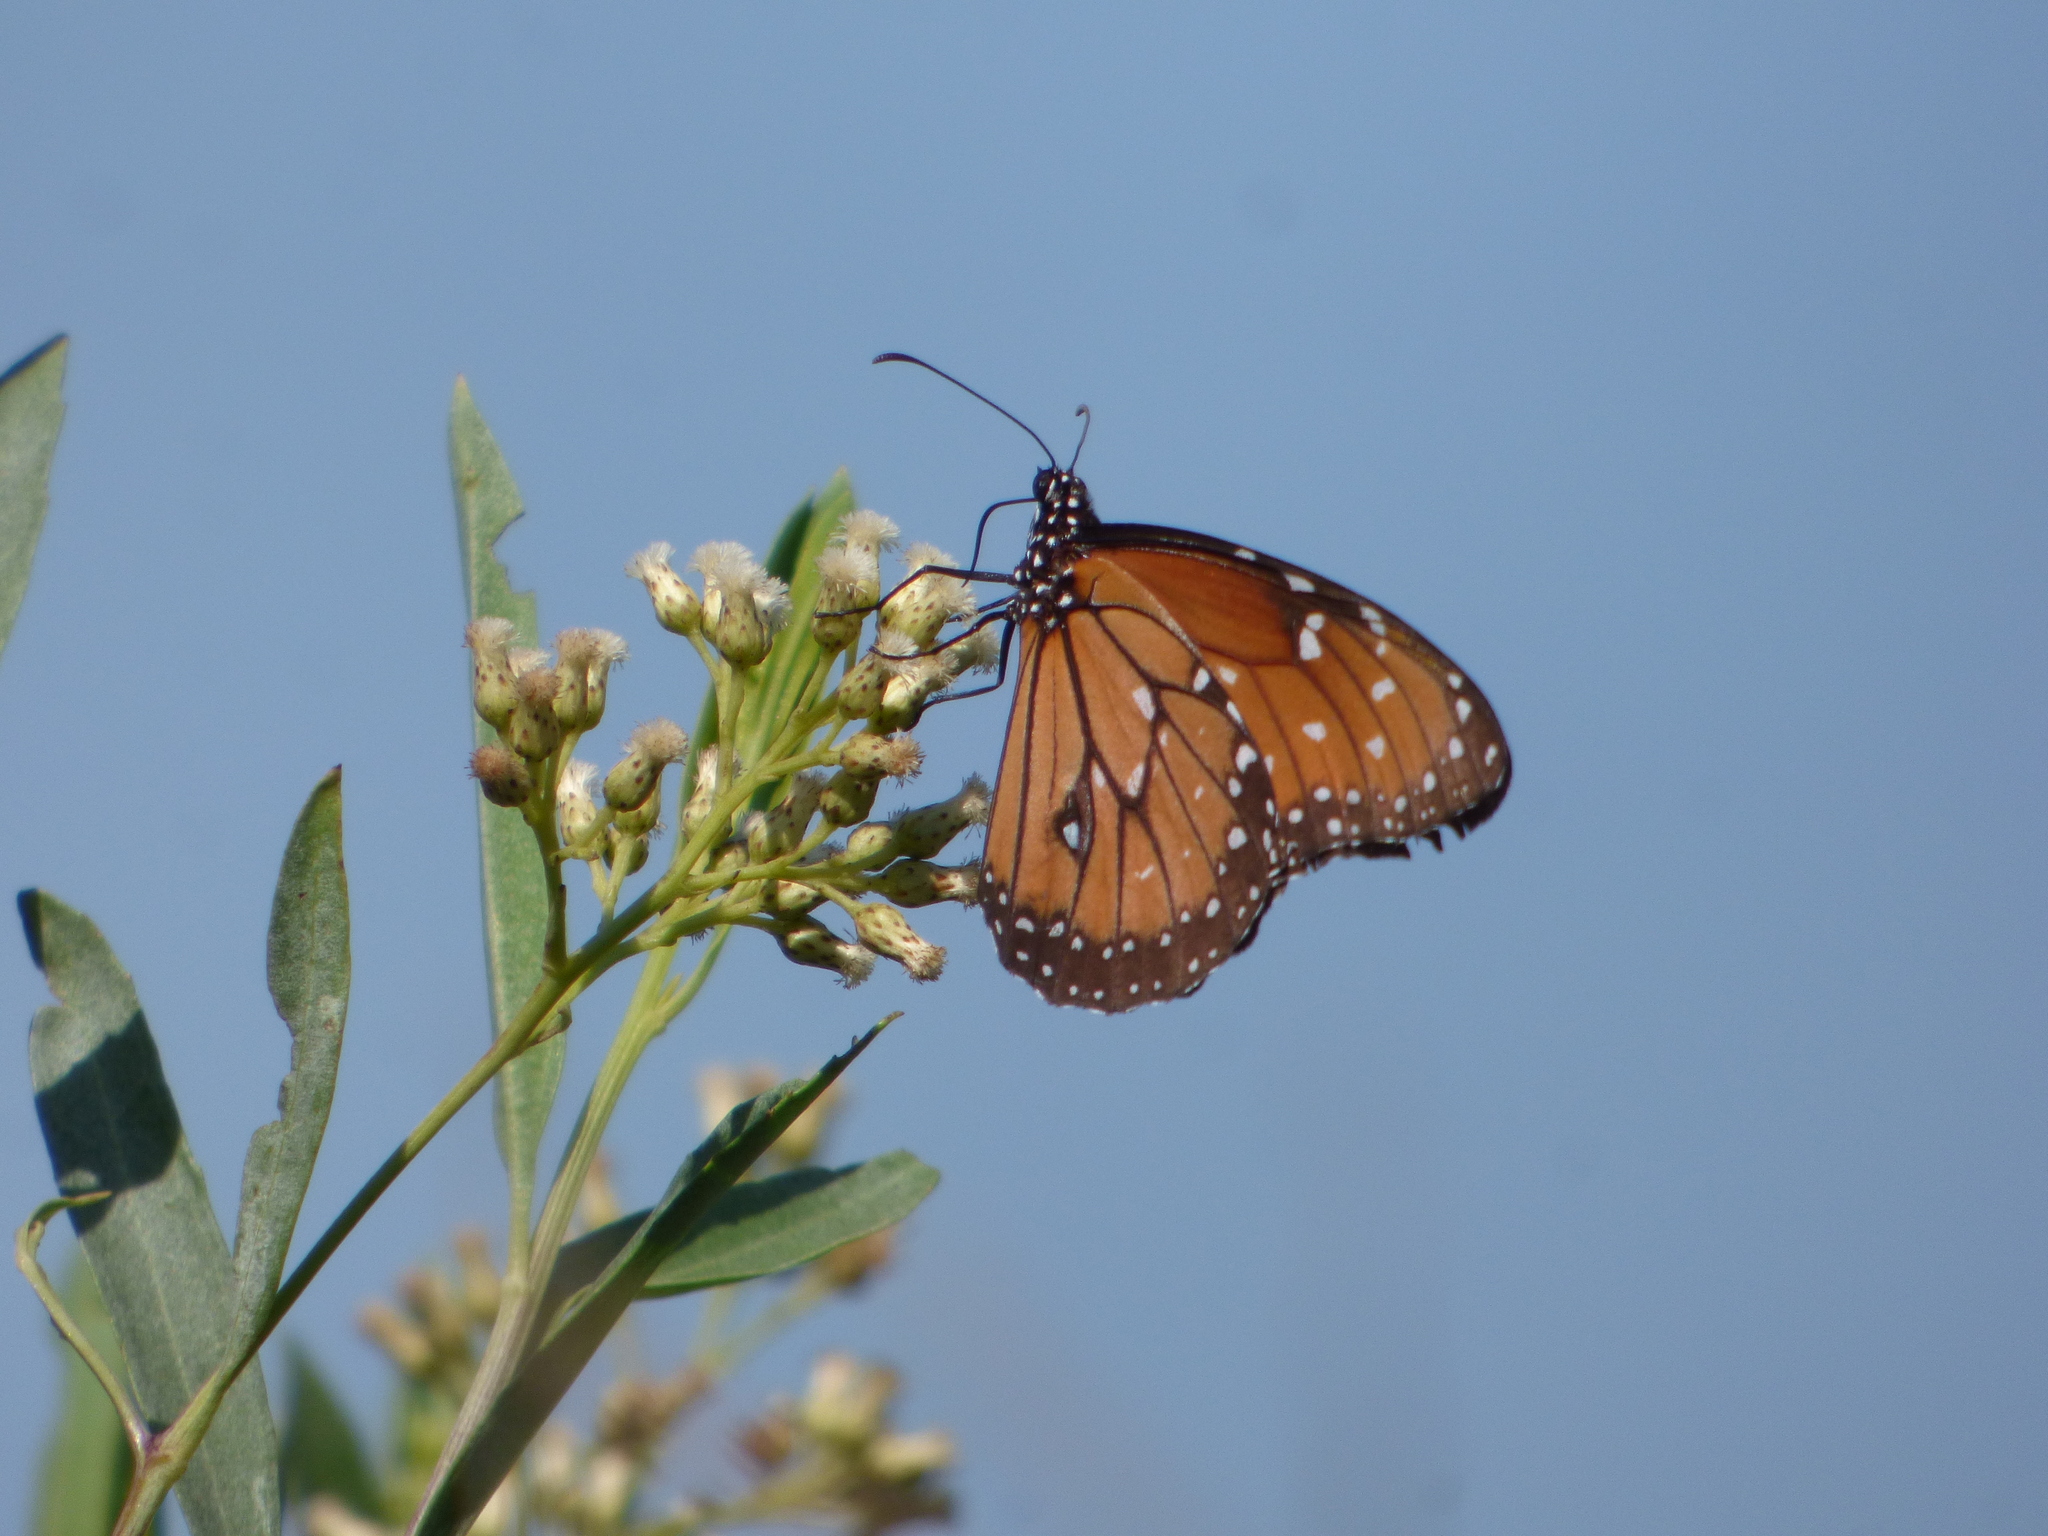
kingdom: Animalia
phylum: Arthropoda
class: Insecta
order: Lepidoptera
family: Nymphalidae
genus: Danaus
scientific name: Danaus eresimus
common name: Soldier
